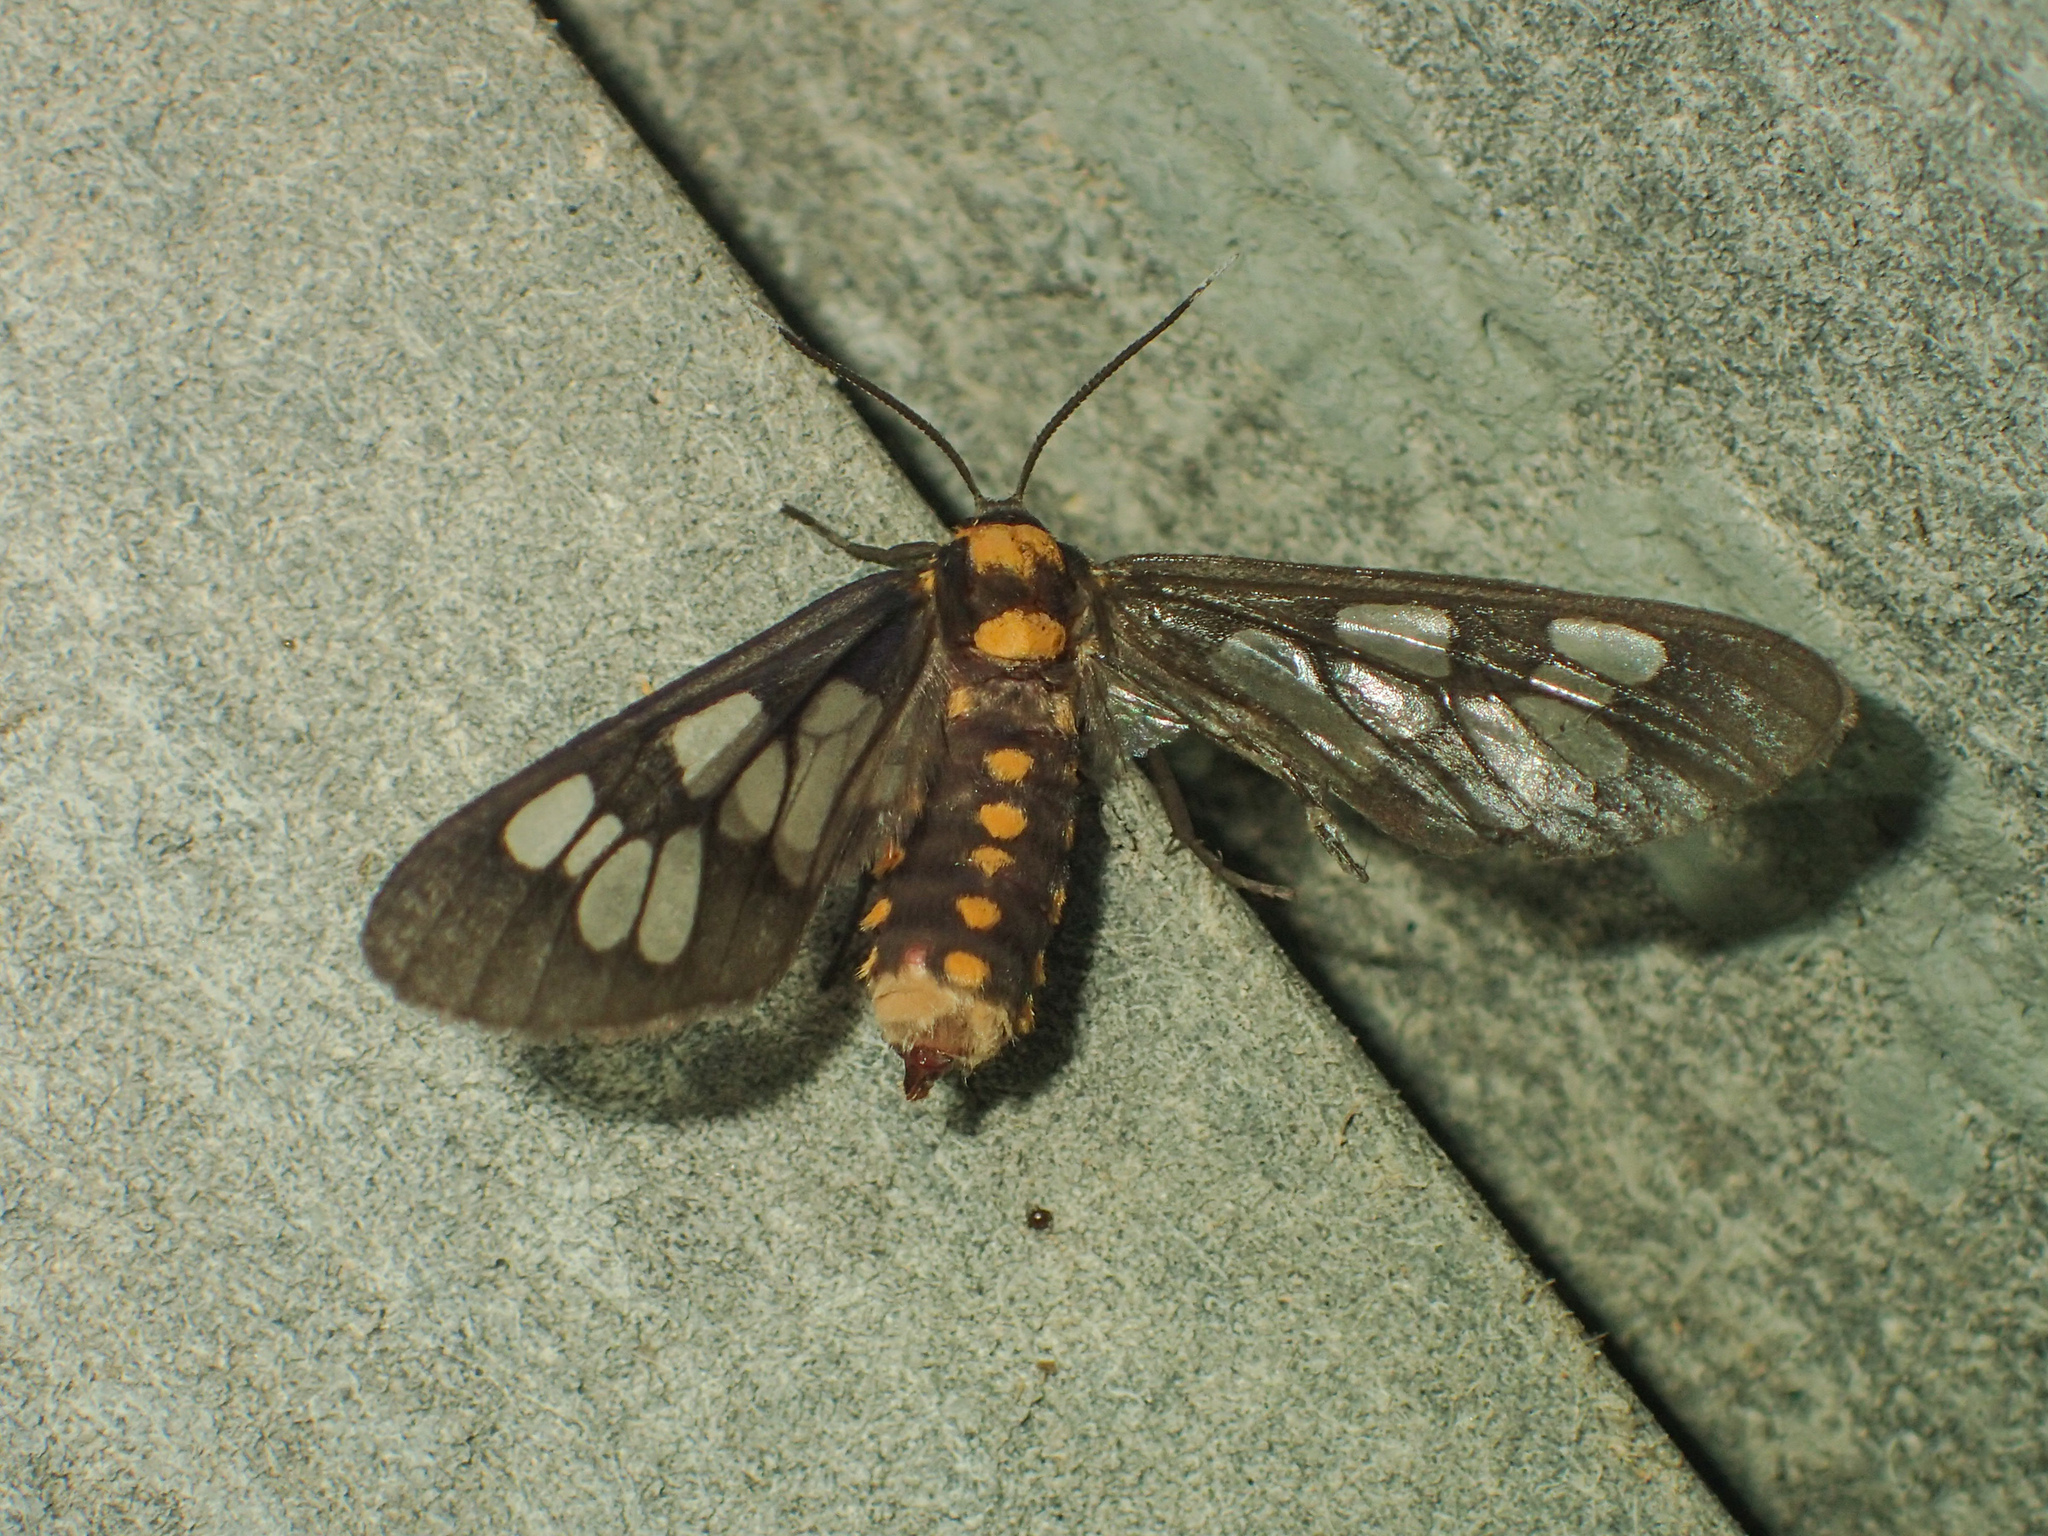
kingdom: Animalia
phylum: Arthropoda
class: Insecta
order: Lepidoptera
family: Erebidae
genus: Eressa
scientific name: Eressa confinis
